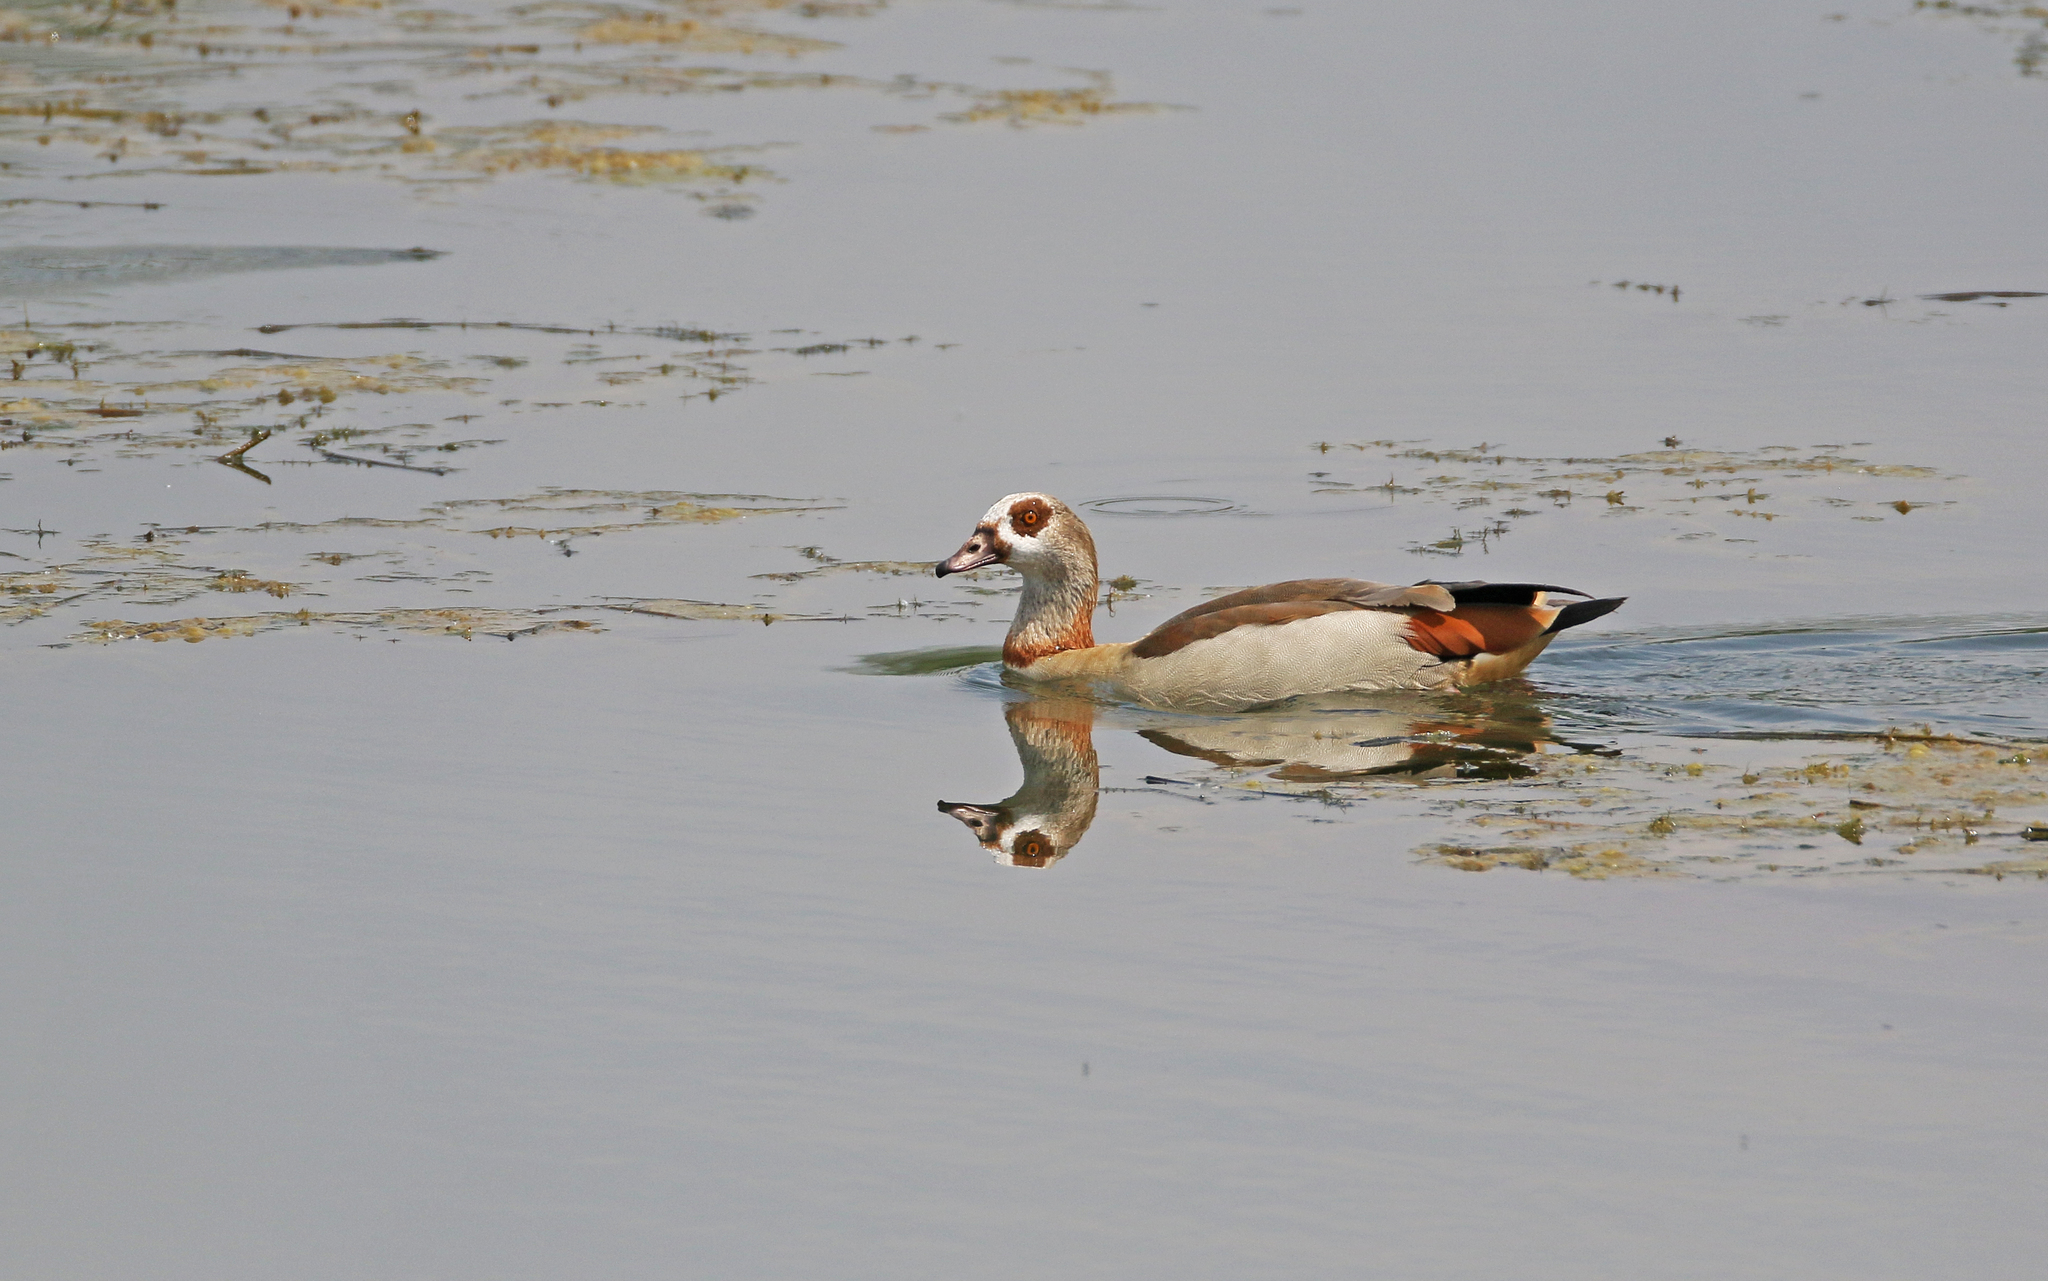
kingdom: Animalia
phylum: Chordata
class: Aves
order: Anseriformes
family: Anatidae
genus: Alopochen
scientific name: Alopochen aegyptiaca
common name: Egyptian goose
